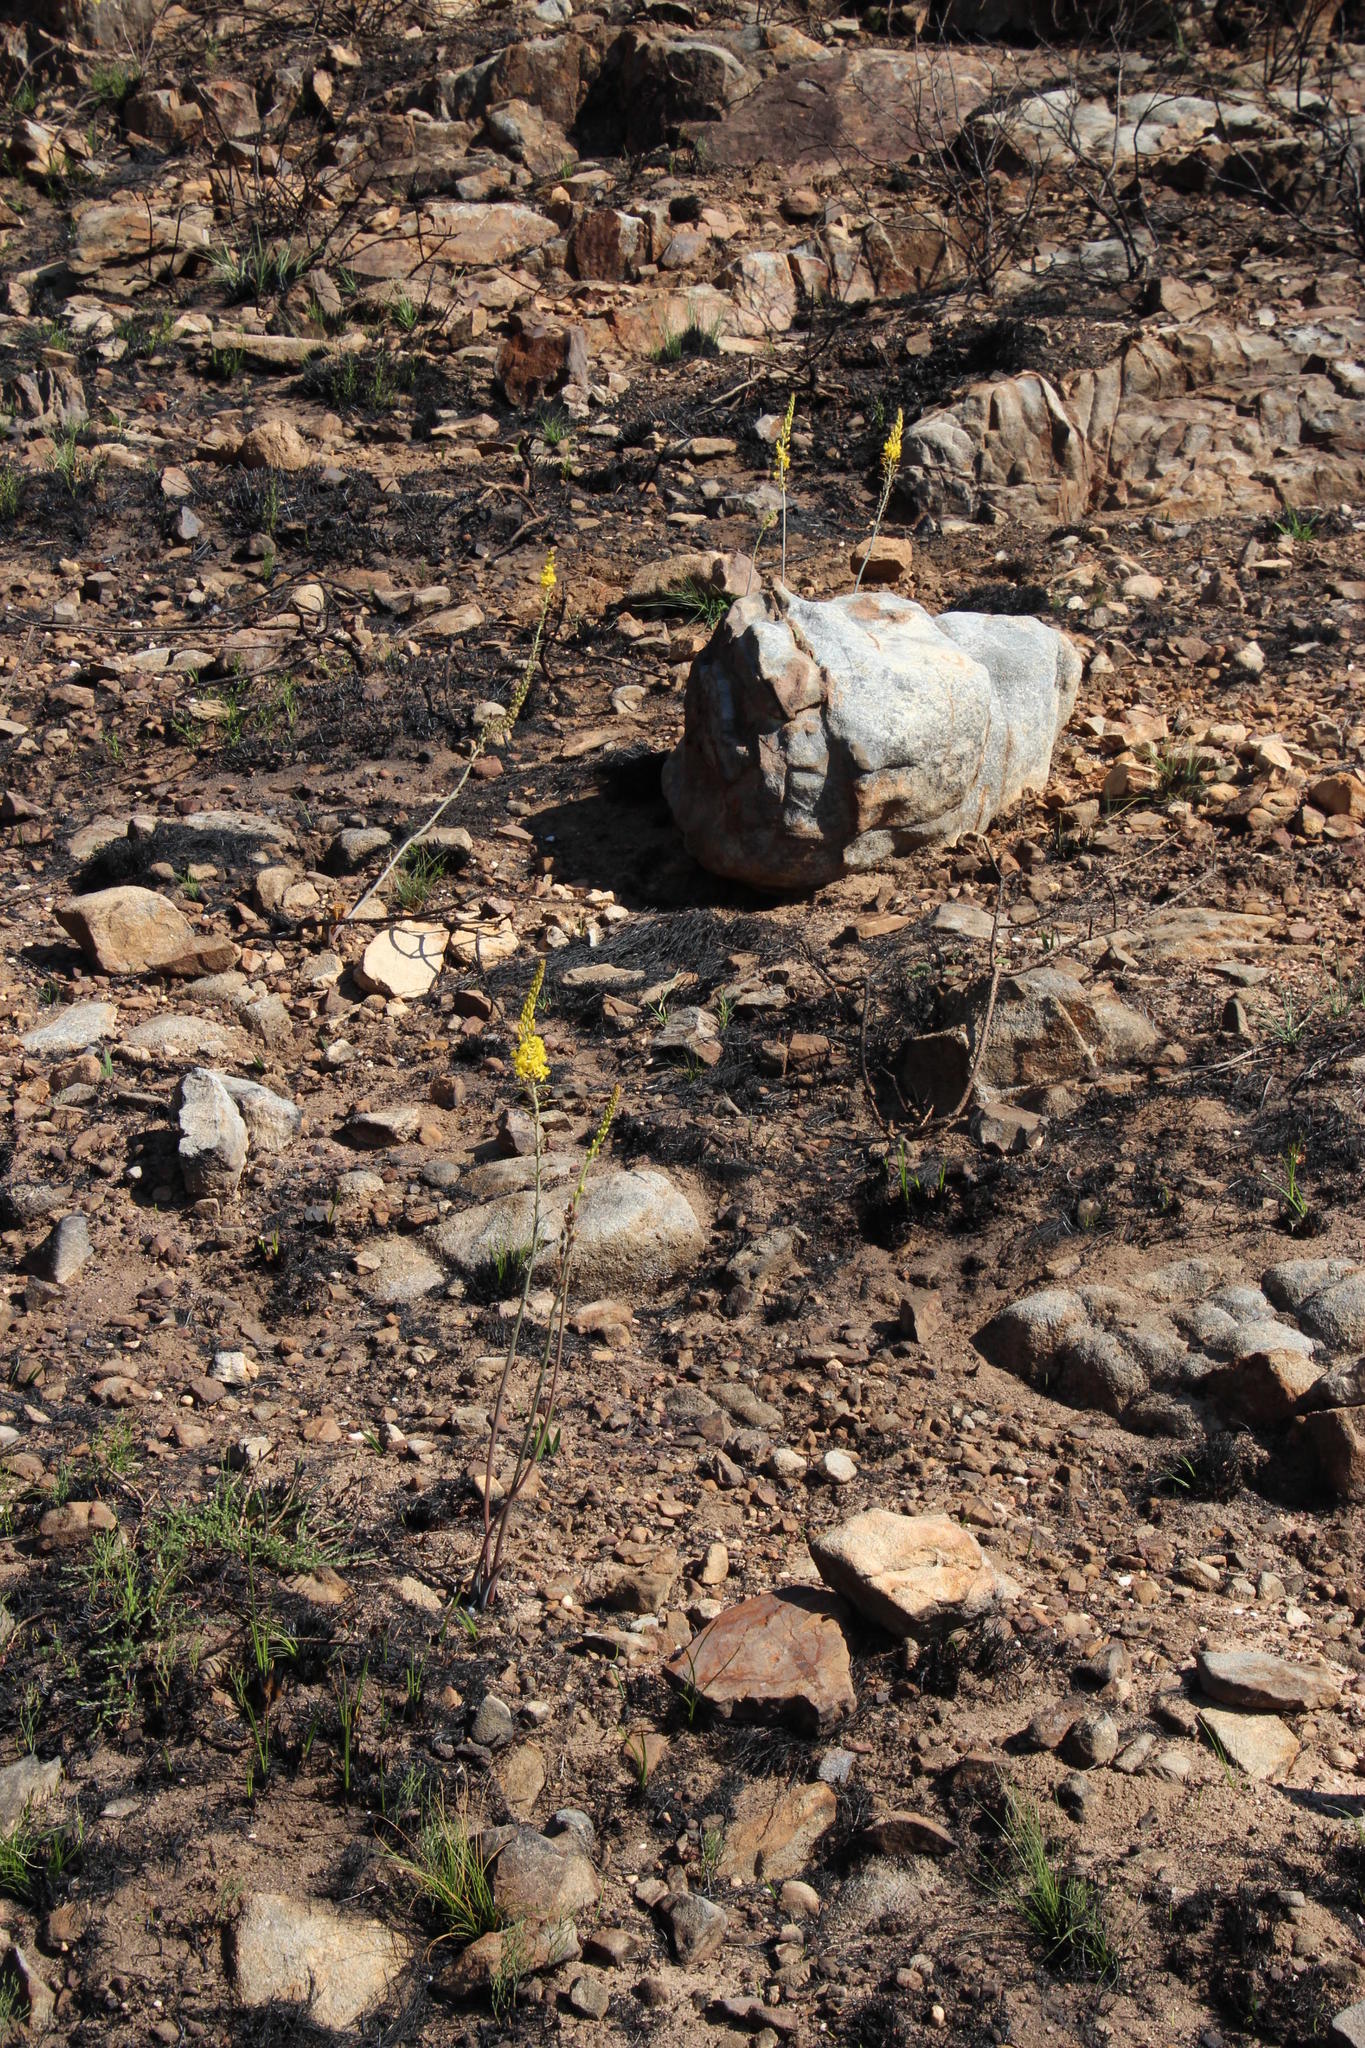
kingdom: Plantae
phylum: Tracheophyta
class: Liliopsida
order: Asparagales
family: Asphodelaceae
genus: Bulbine
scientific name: Bulbine cepacea
